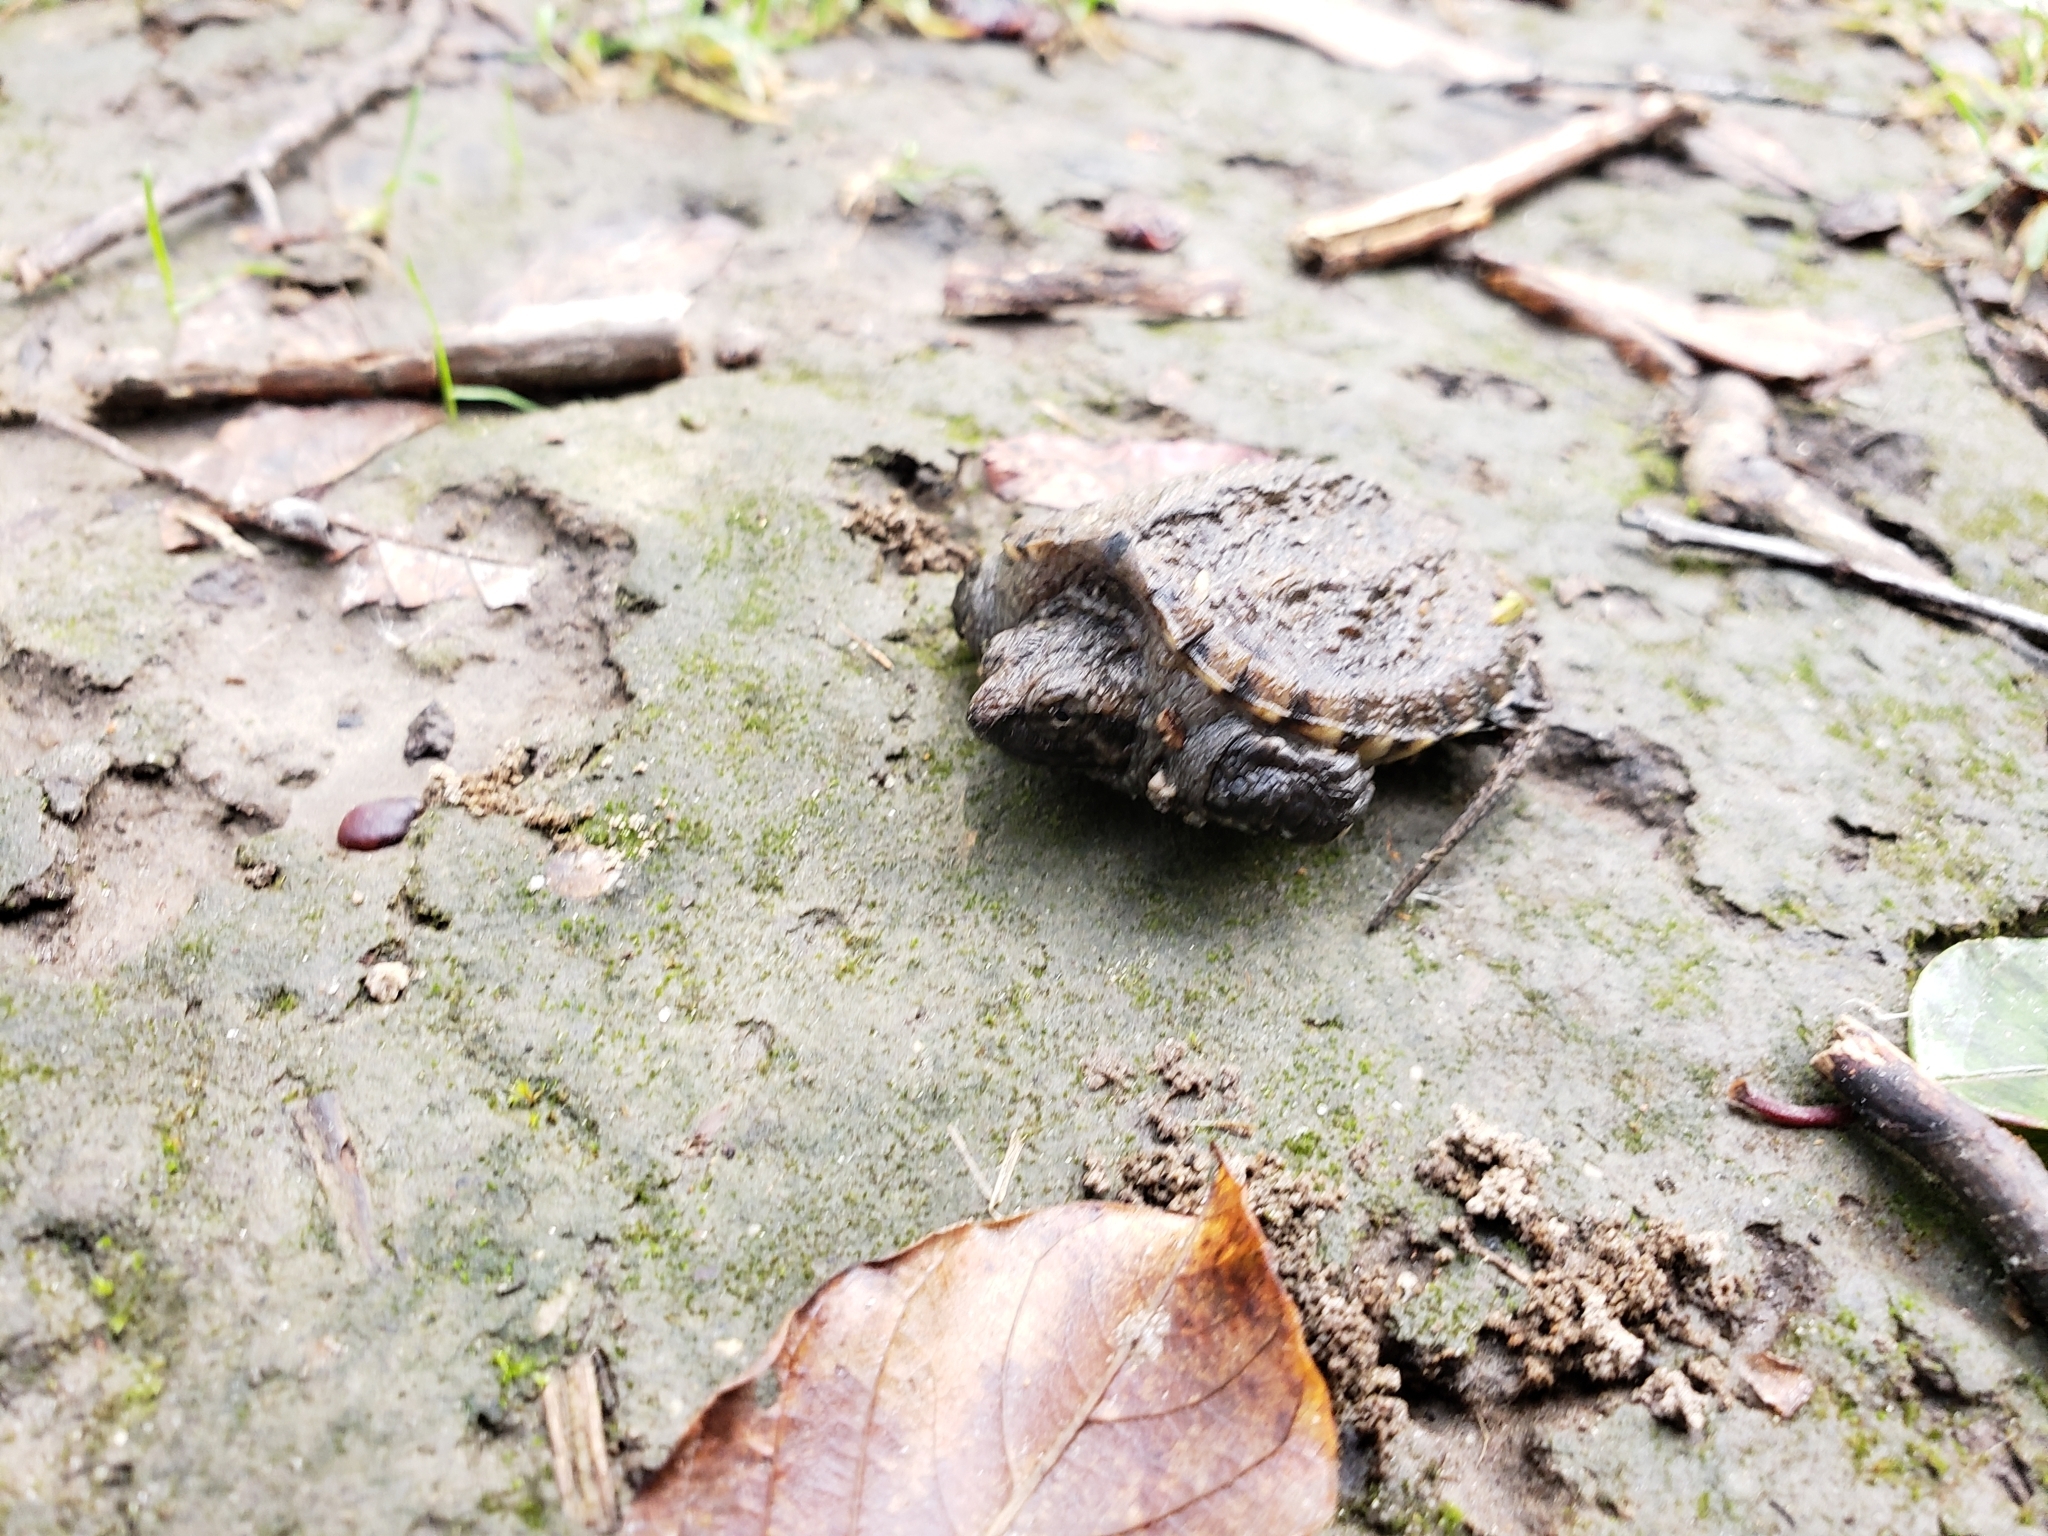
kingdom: Animalia
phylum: Chordata
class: Testudines
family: Chelydridae
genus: Chelydra
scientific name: Chelydra serpentina
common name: Common snapping turtle
